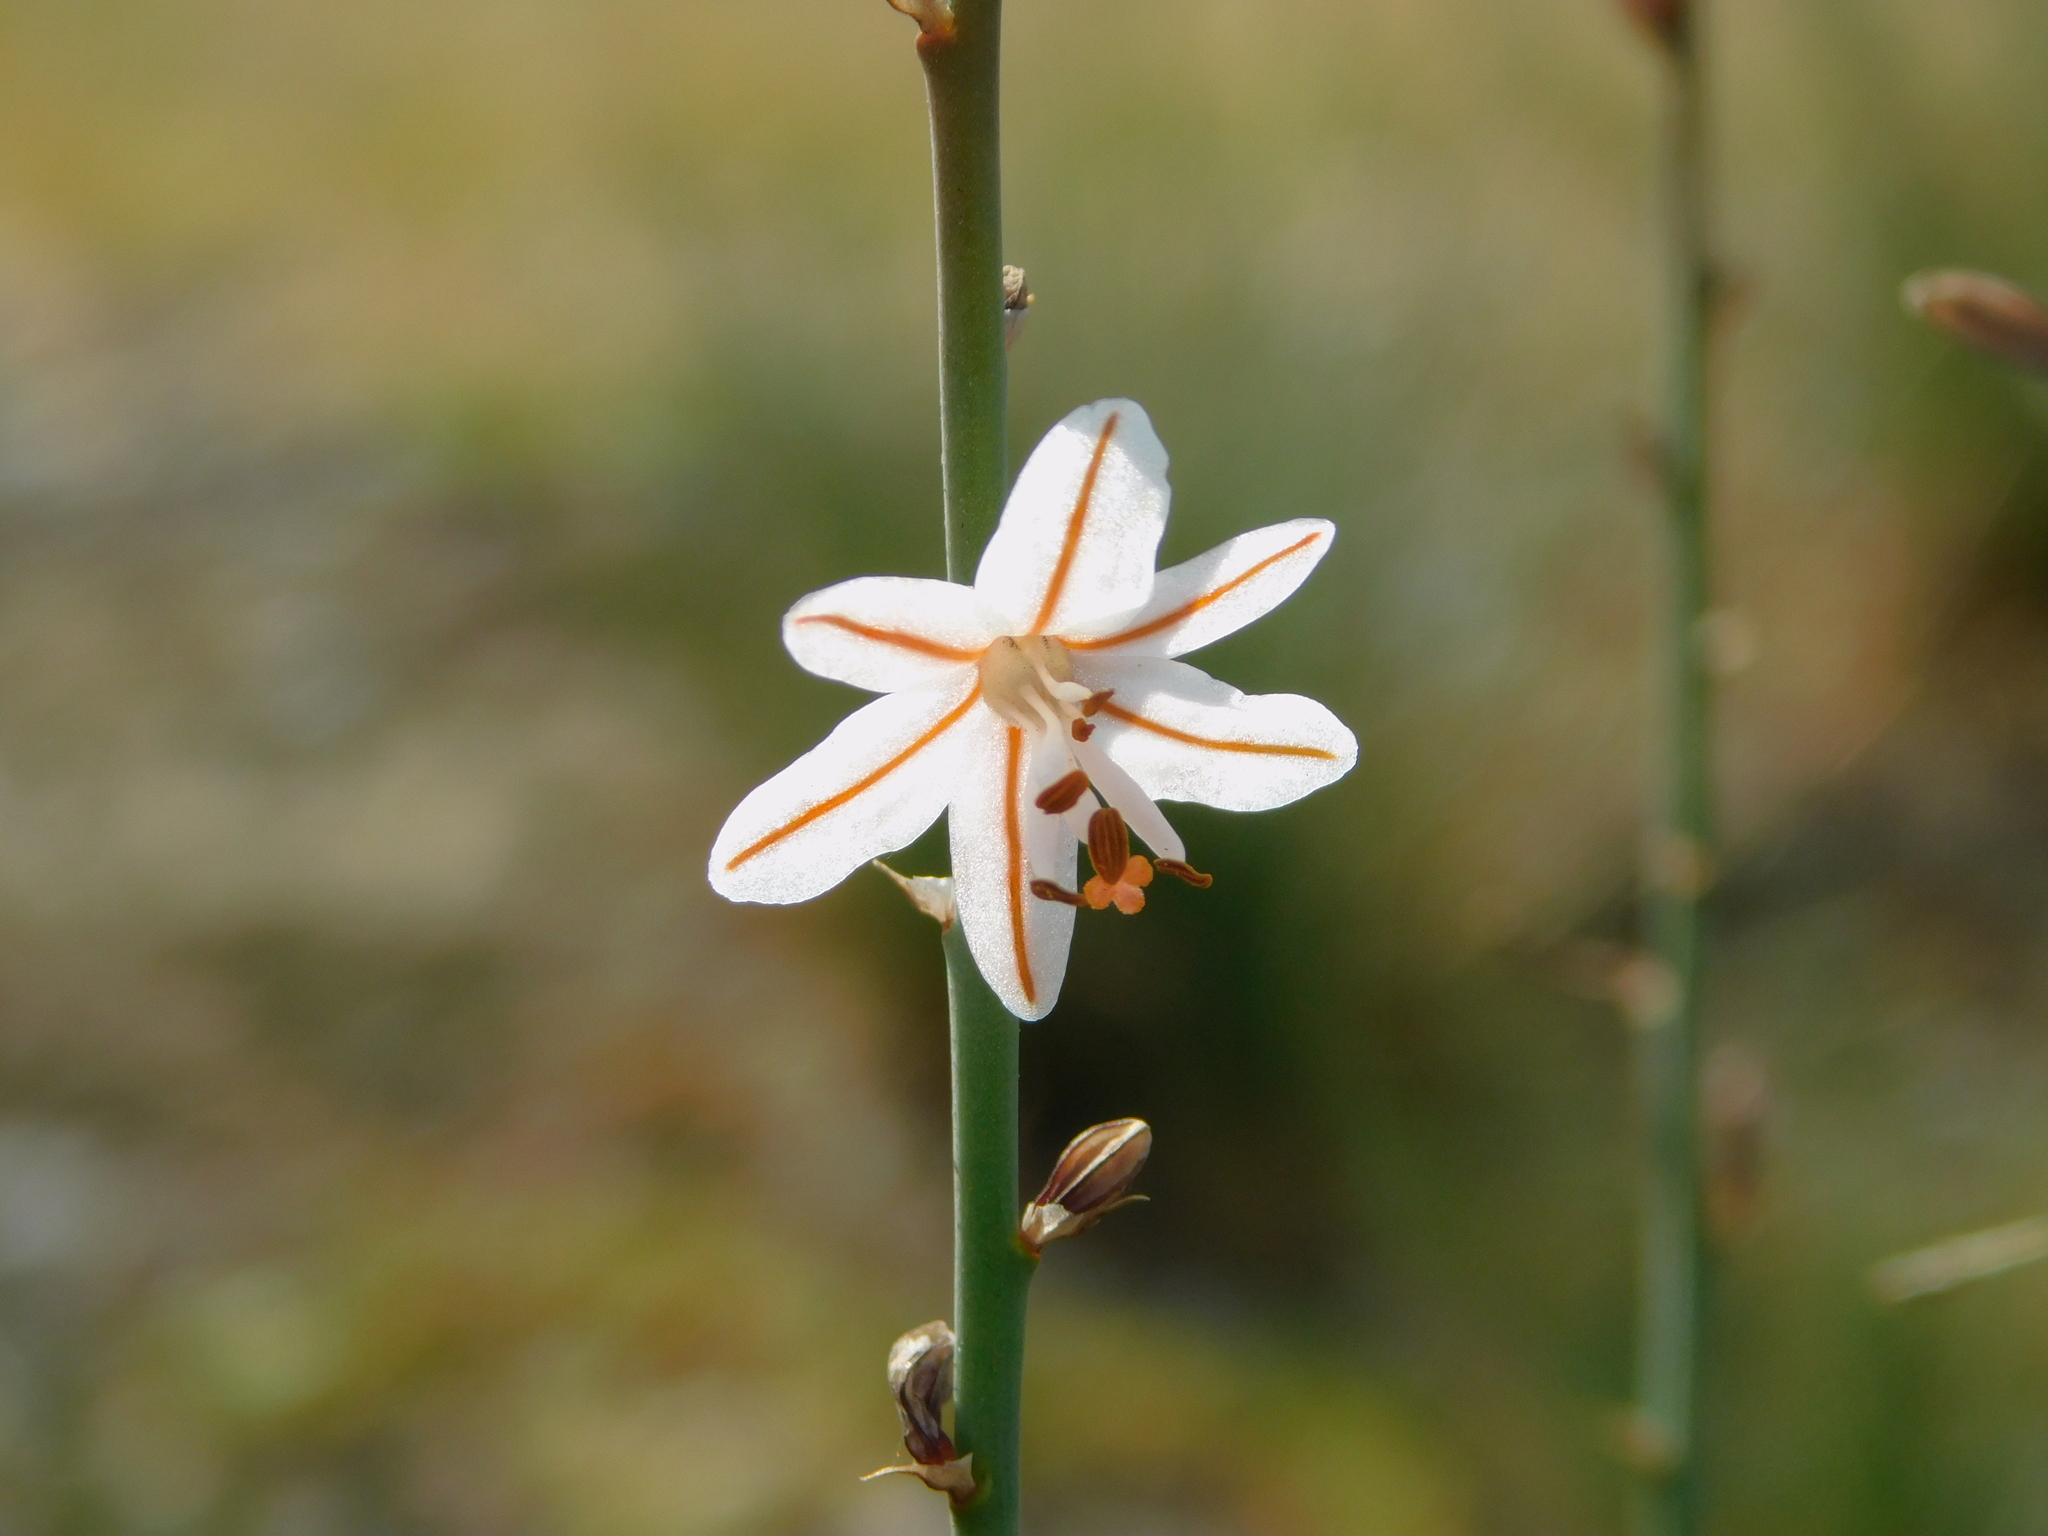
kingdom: Plantae
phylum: Tracheophyta
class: Liliopsida
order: Asparagales
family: Asphodelaceae
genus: Asphodelus
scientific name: Asphodelus fistulosus
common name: Onionweed
